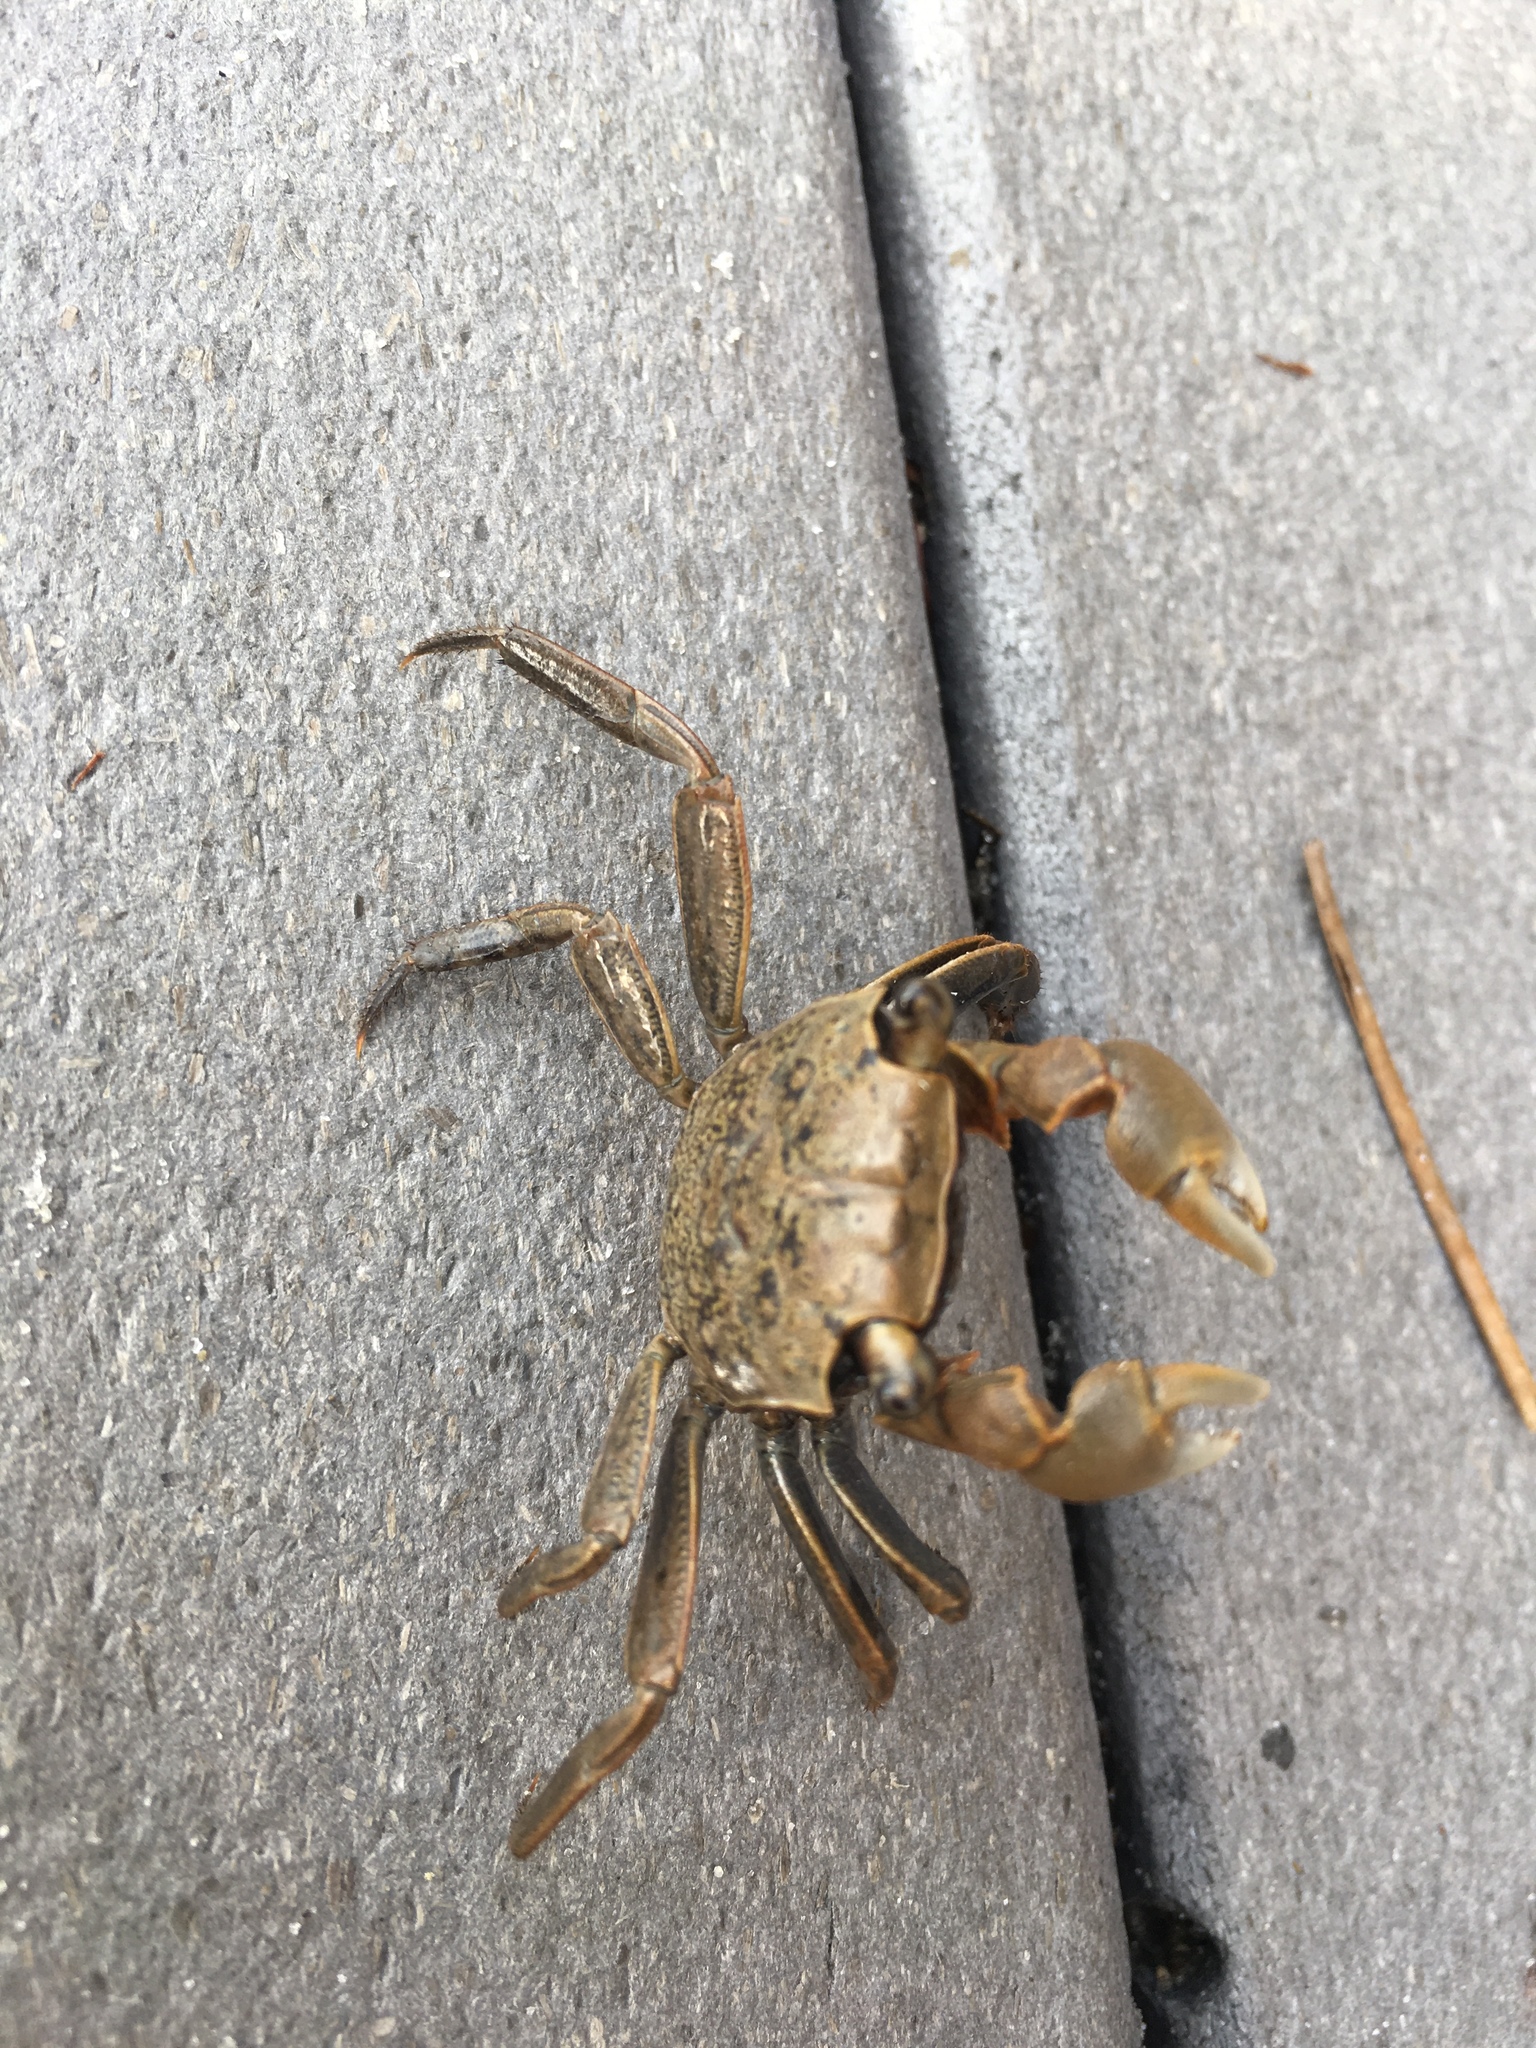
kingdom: Animalia
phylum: Arthropoda
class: Malacostraca
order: Decapoda
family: Sesarmidae
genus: Armases
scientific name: Armases cinereum
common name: Squareback marsh crab
